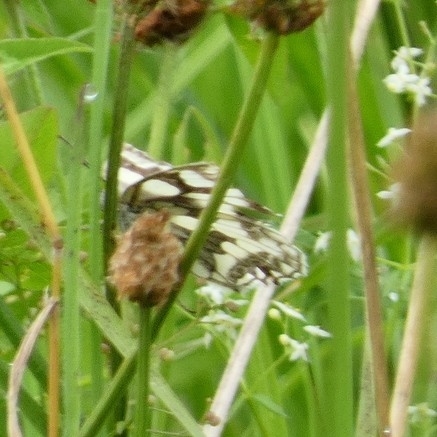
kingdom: Animalia
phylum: Arthropoda
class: Insecta
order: Lepidoptera
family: Nymphalidae
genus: Melanargia
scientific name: Melanargia galathea
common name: Marbled white
